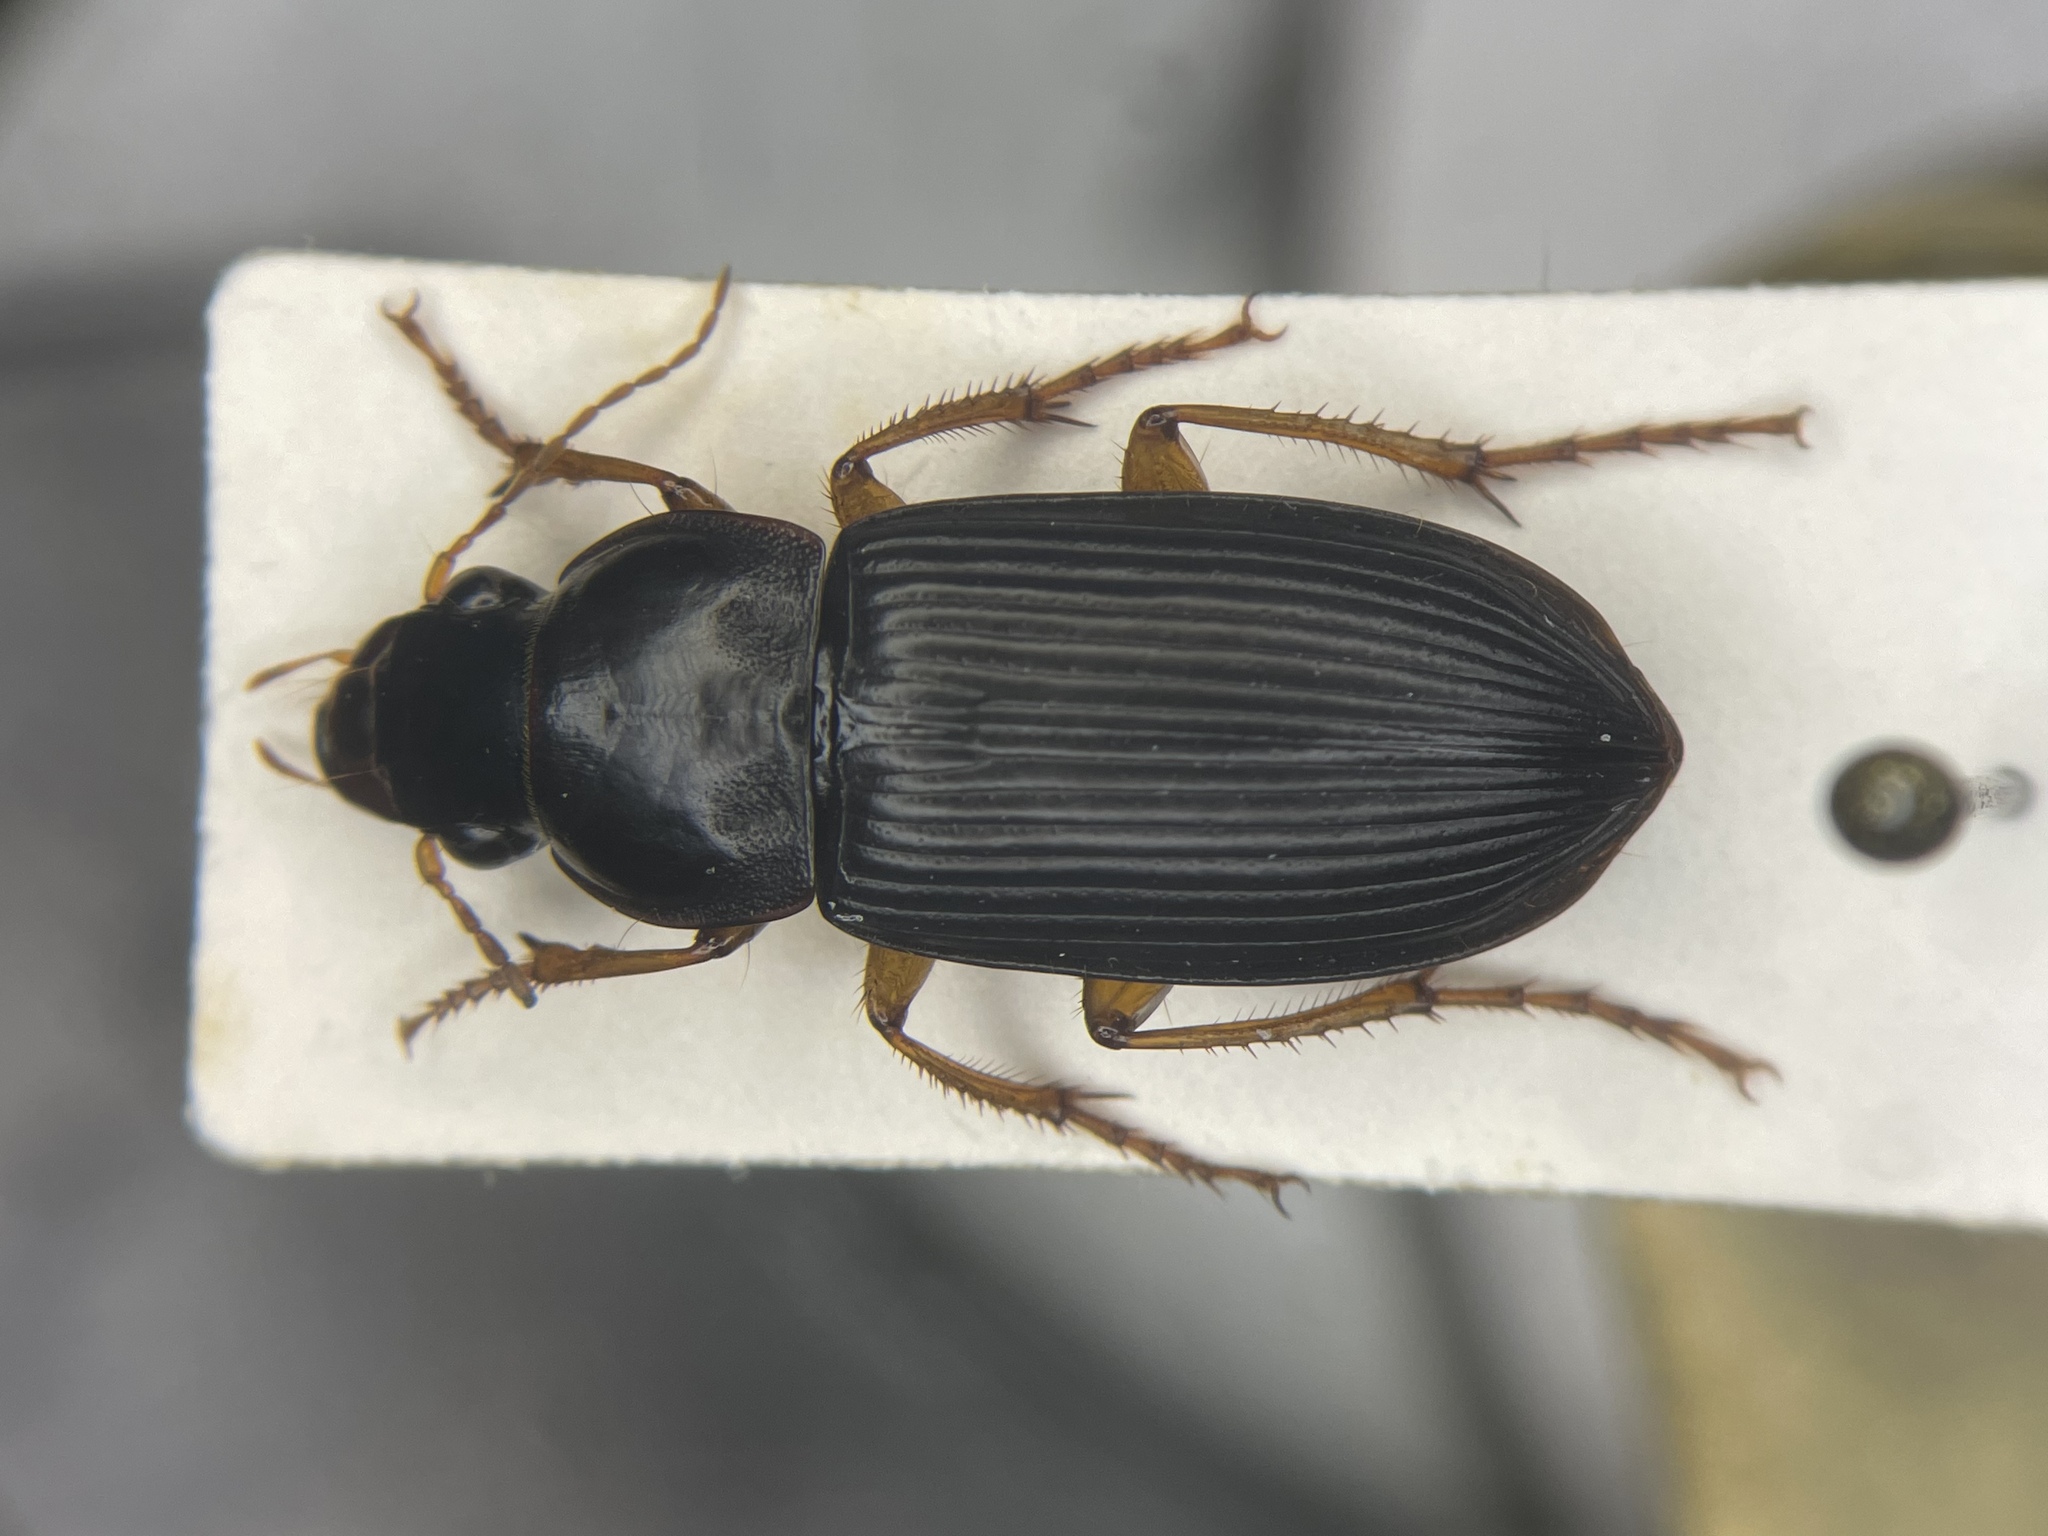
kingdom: Animalia
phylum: Arthropoda
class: Insecta
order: Coleoptera
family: Carabidae
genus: Harpalus
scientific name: Harpalus pensylvanicus
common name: Pennsylvania dingy ground beetle
